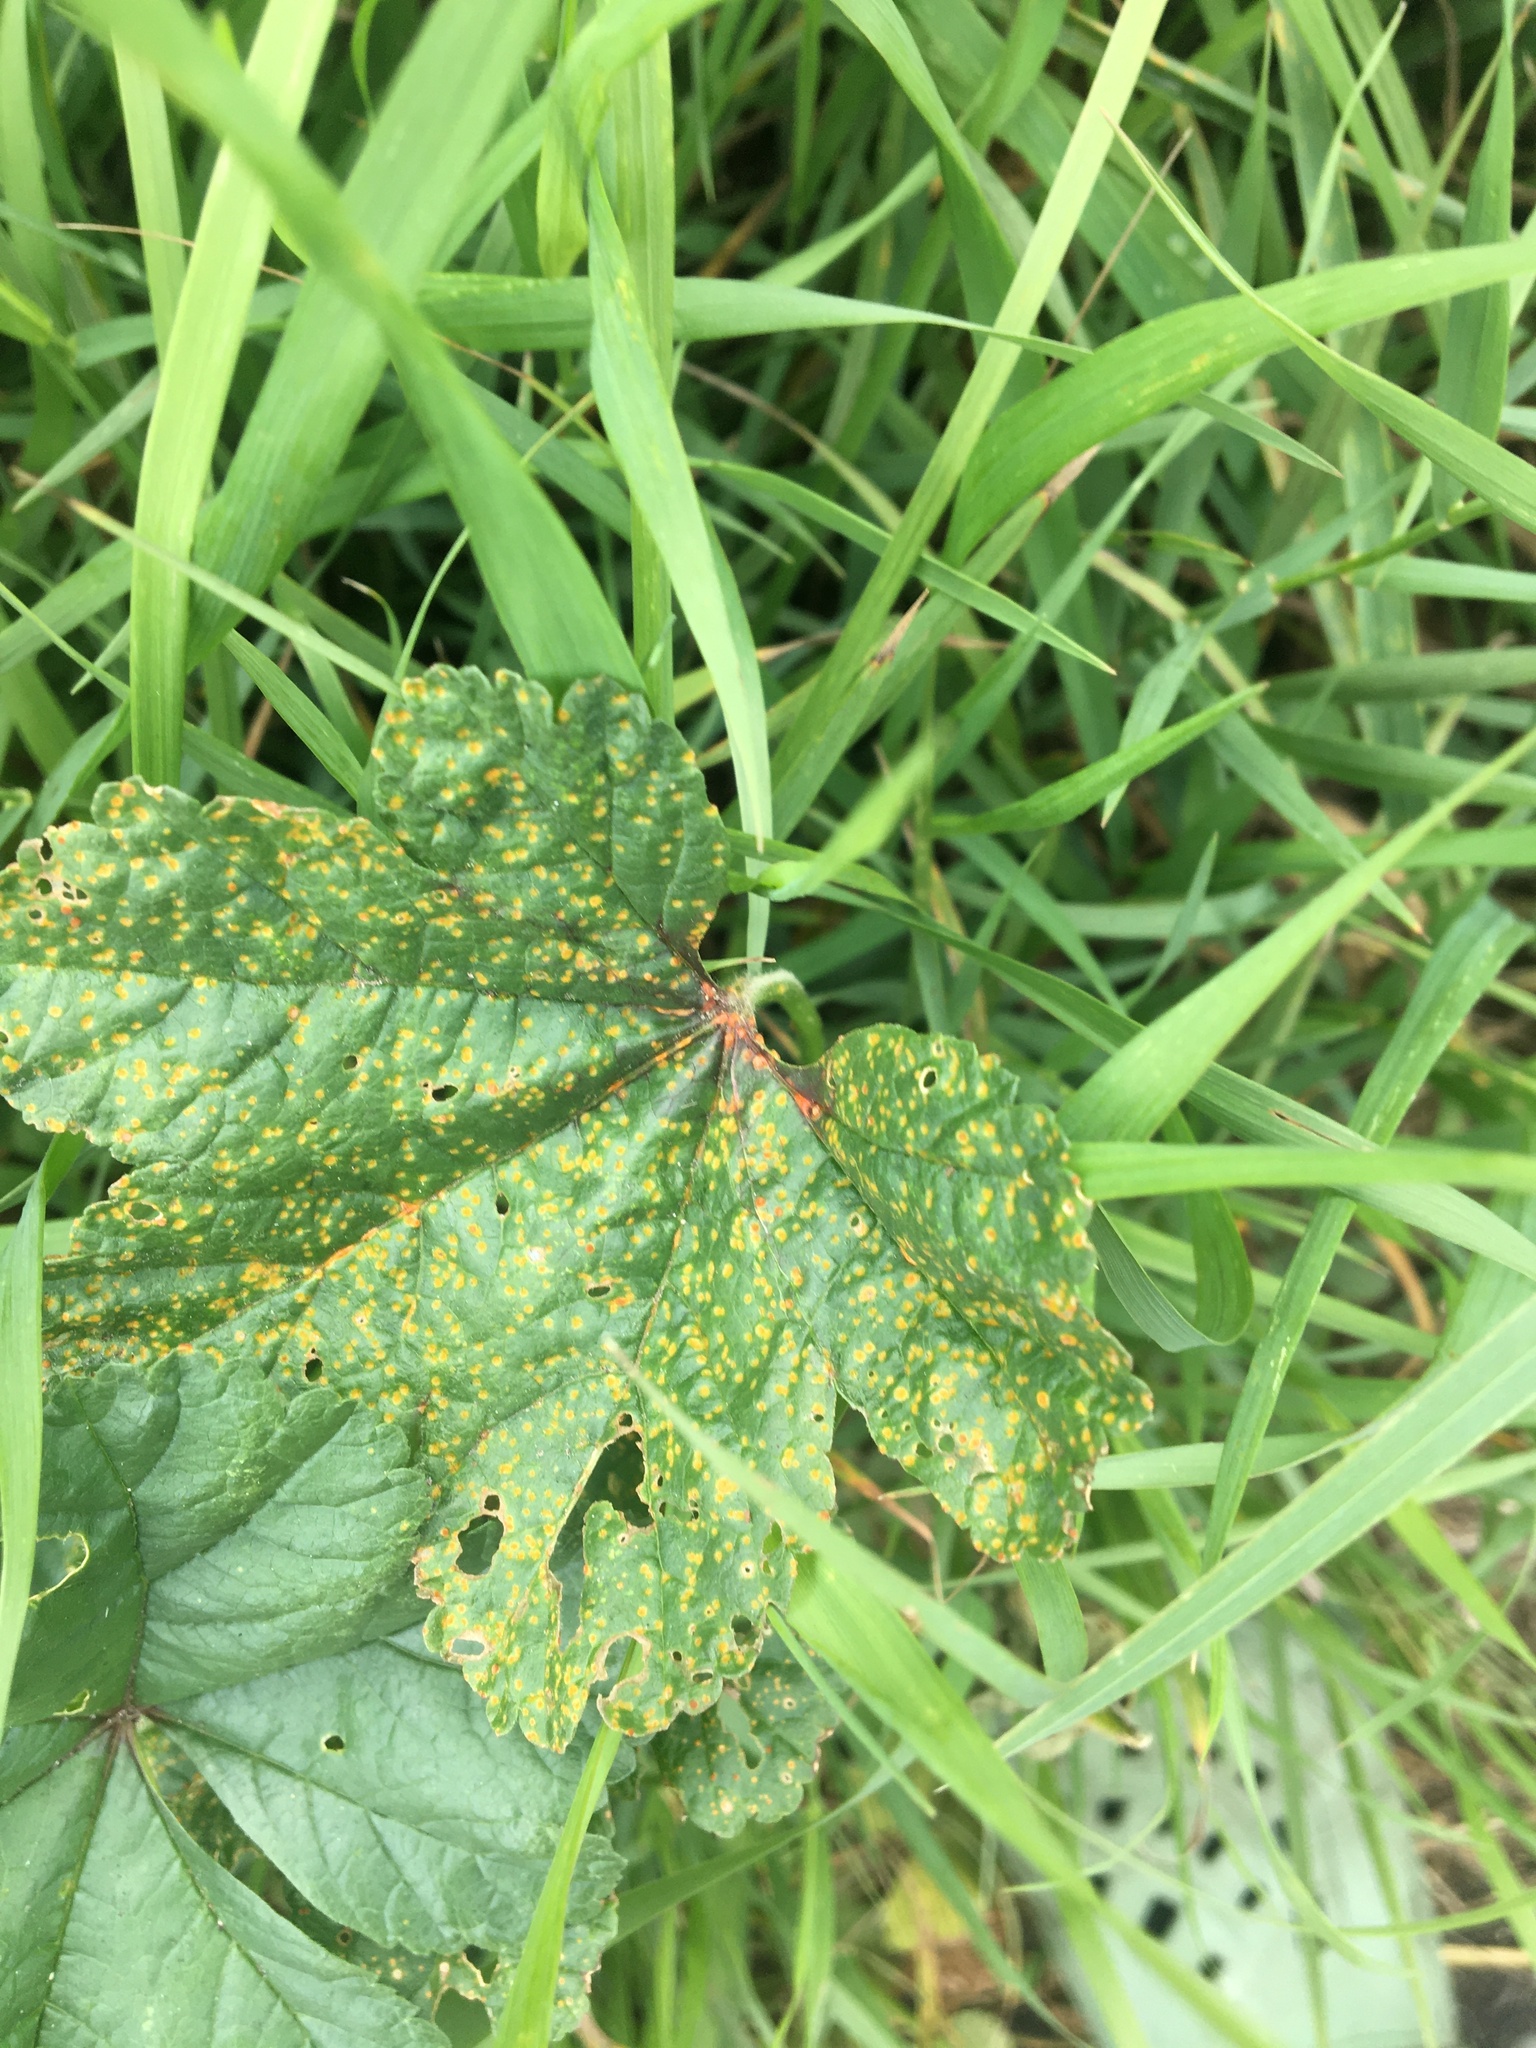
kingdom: Plantae
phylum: Tracheophyta
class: Magnoliopsida
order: Malvales
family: Malvaceae
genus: Malva
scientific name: Malva sylvestris
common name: Common mallow
